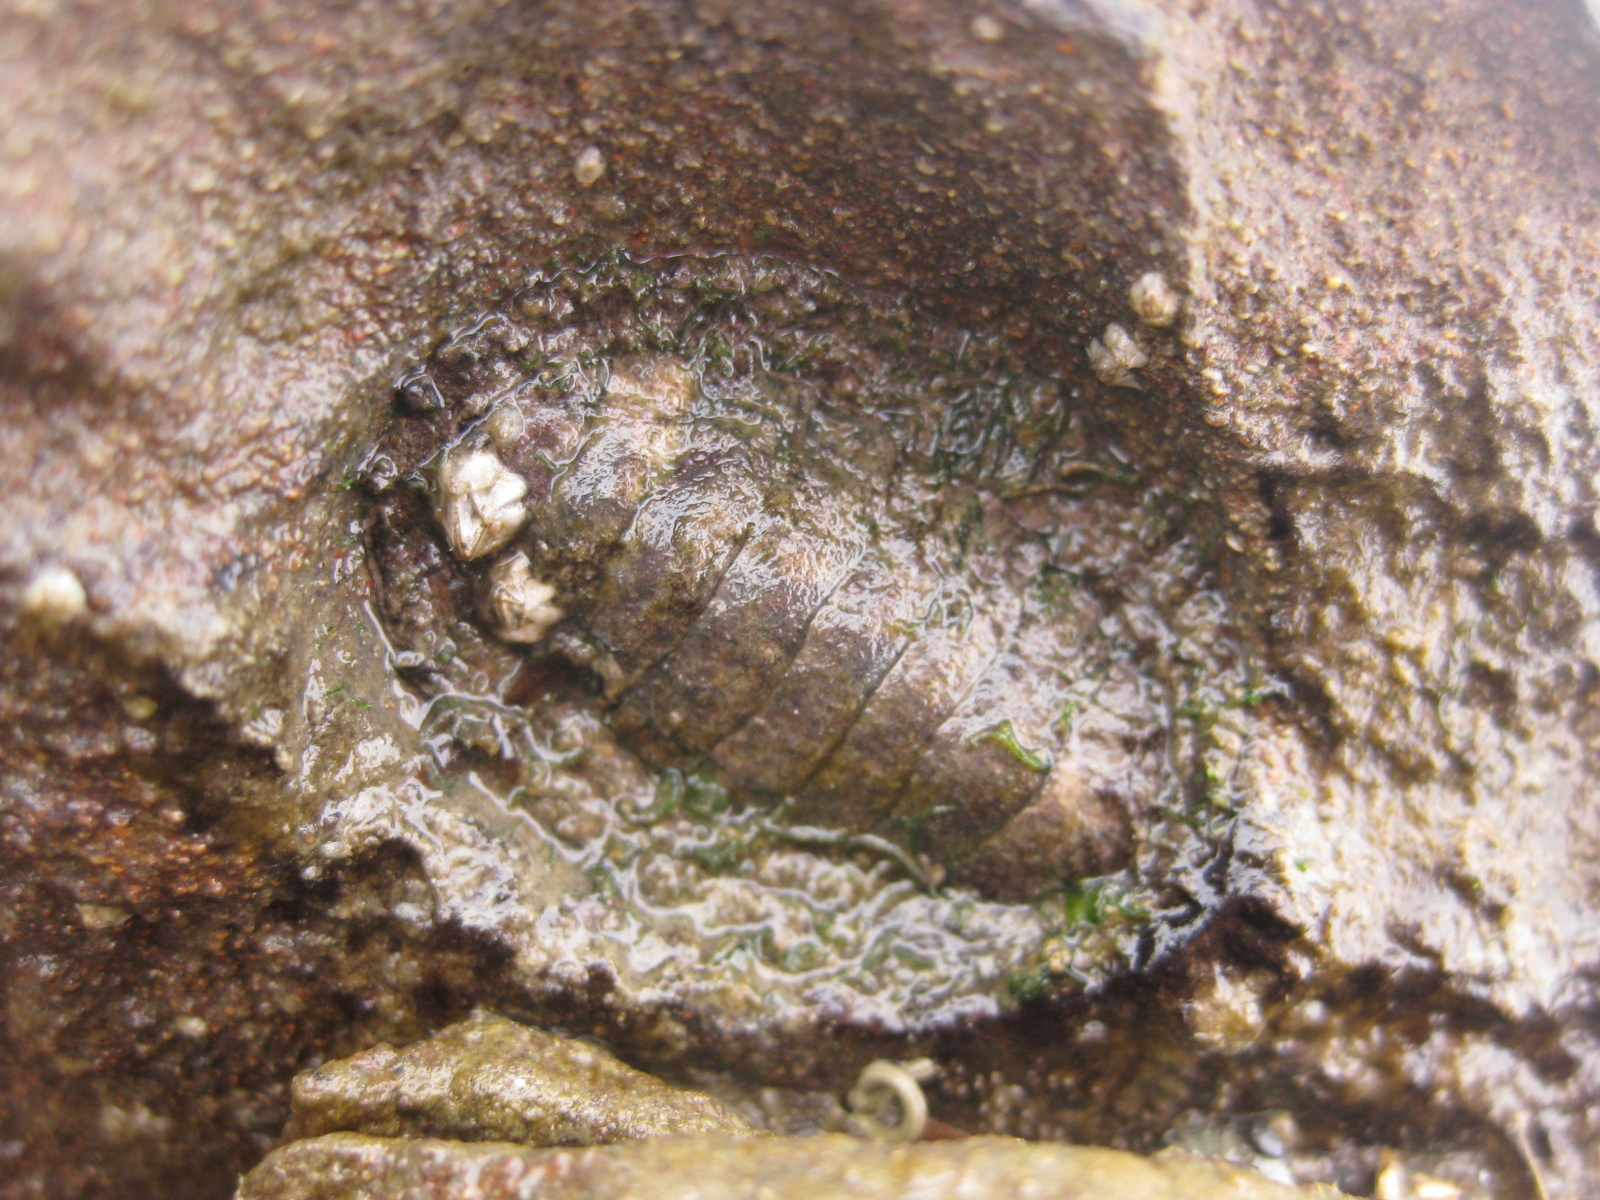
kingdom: Animalia
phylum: Mollusca
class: Polyplacophora
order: Chitonida
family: Chitonidae
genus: Sypharochiton
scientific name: Sypharochiton pelliserpentis
